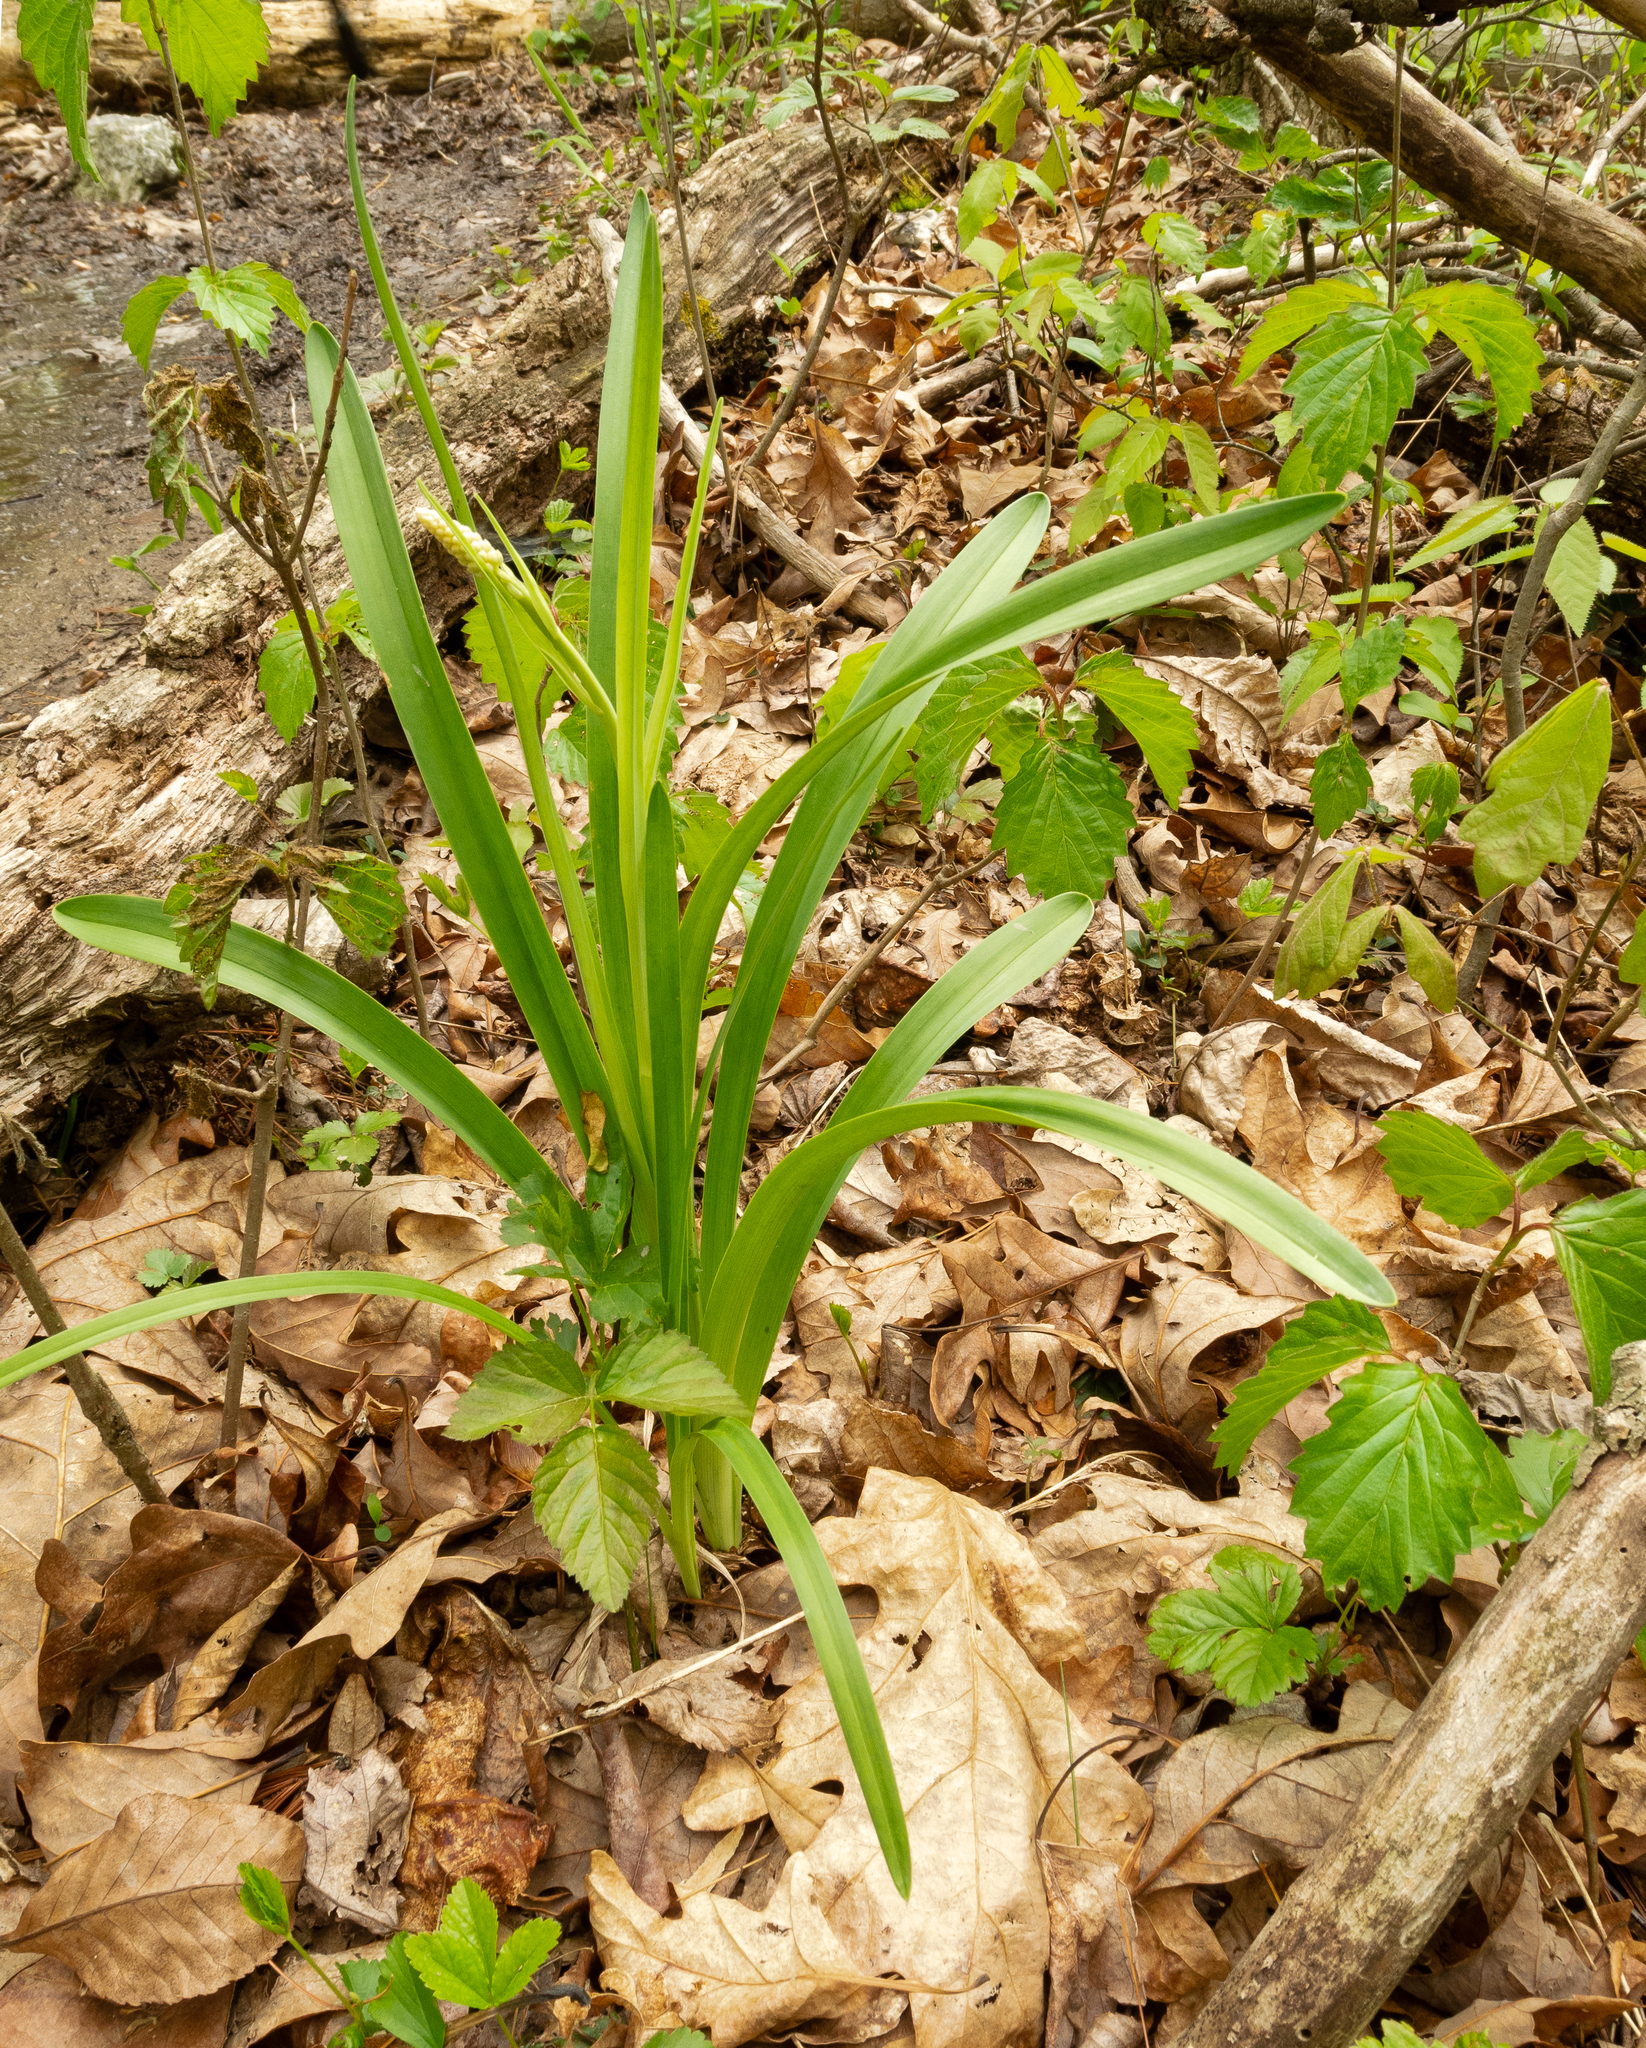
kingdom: Plantae
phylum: Tracheophyta
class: Liliopsida
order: Liliales
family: Melanthiaceae
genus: Amianthium
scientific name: Amianthium muscitoxicum
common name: Fly-poison
